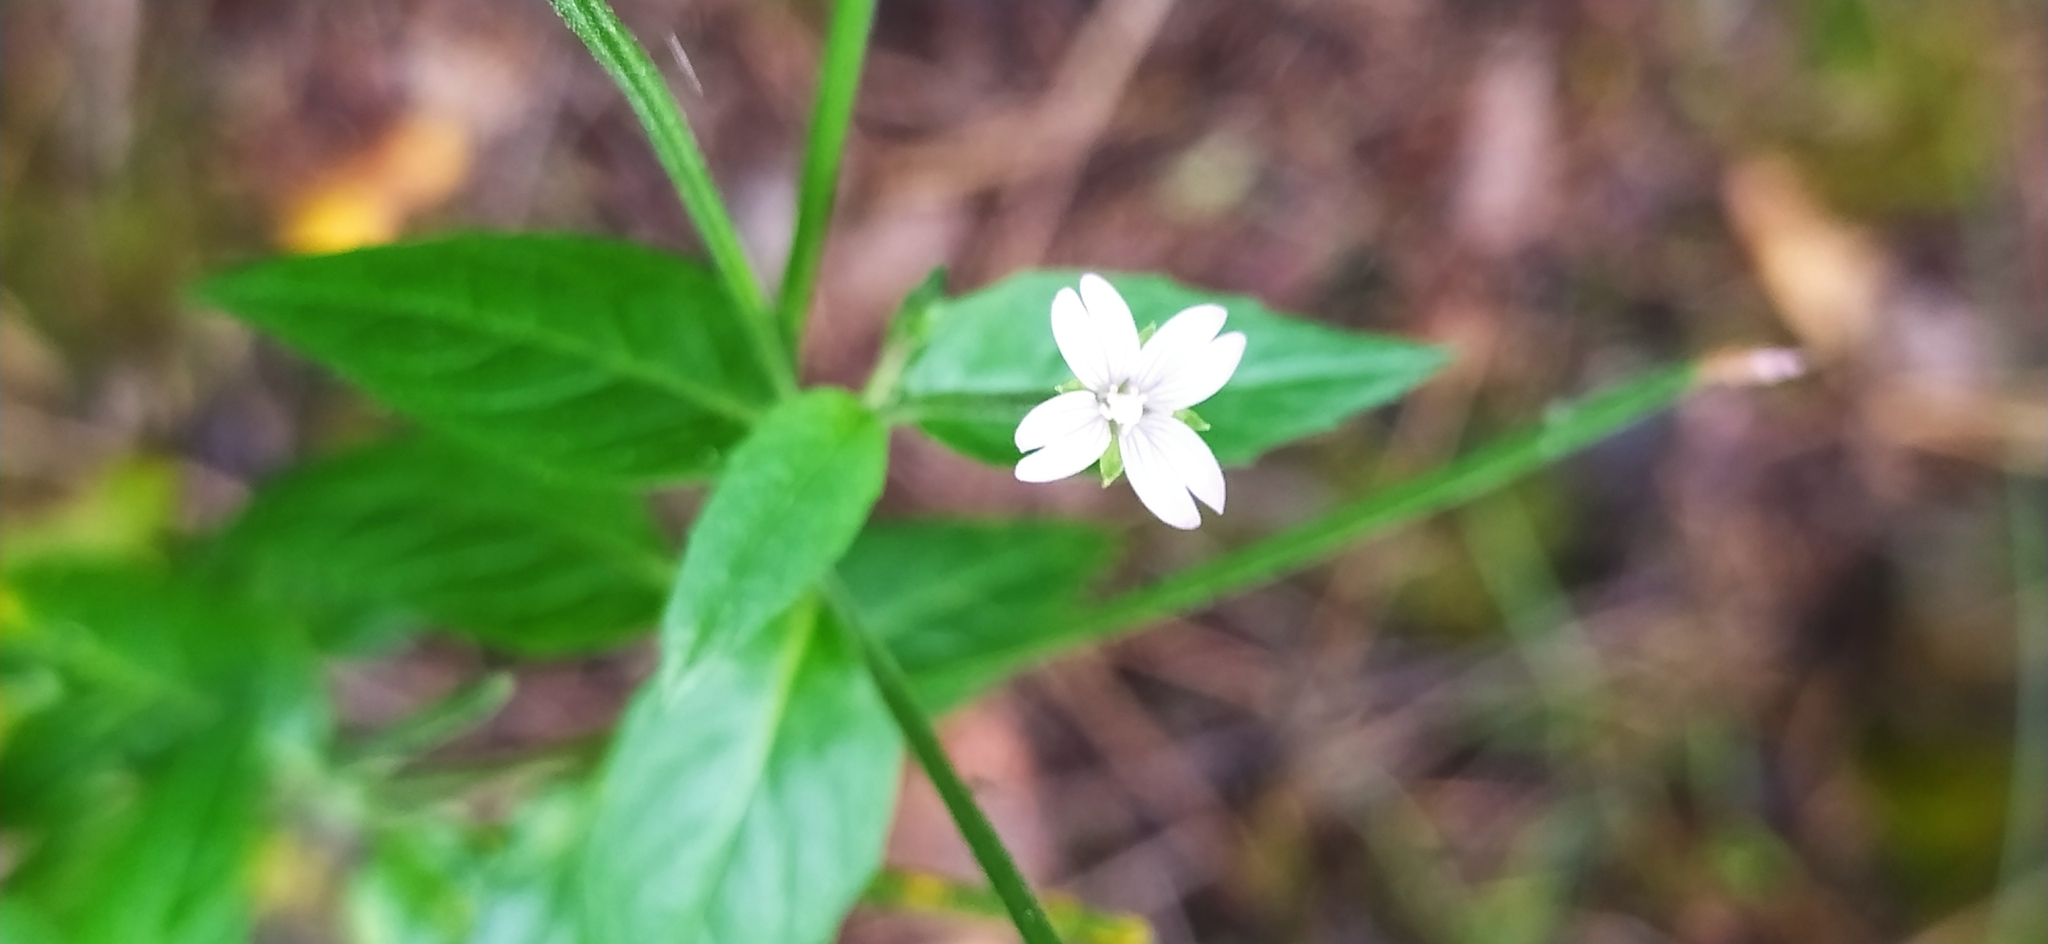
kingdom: Plantae
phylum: Tracheophyta
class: Magnoliopsida
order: Myrtales
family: Onagraceae
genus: Epilobium
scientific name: Epilobium pseudorubescens
